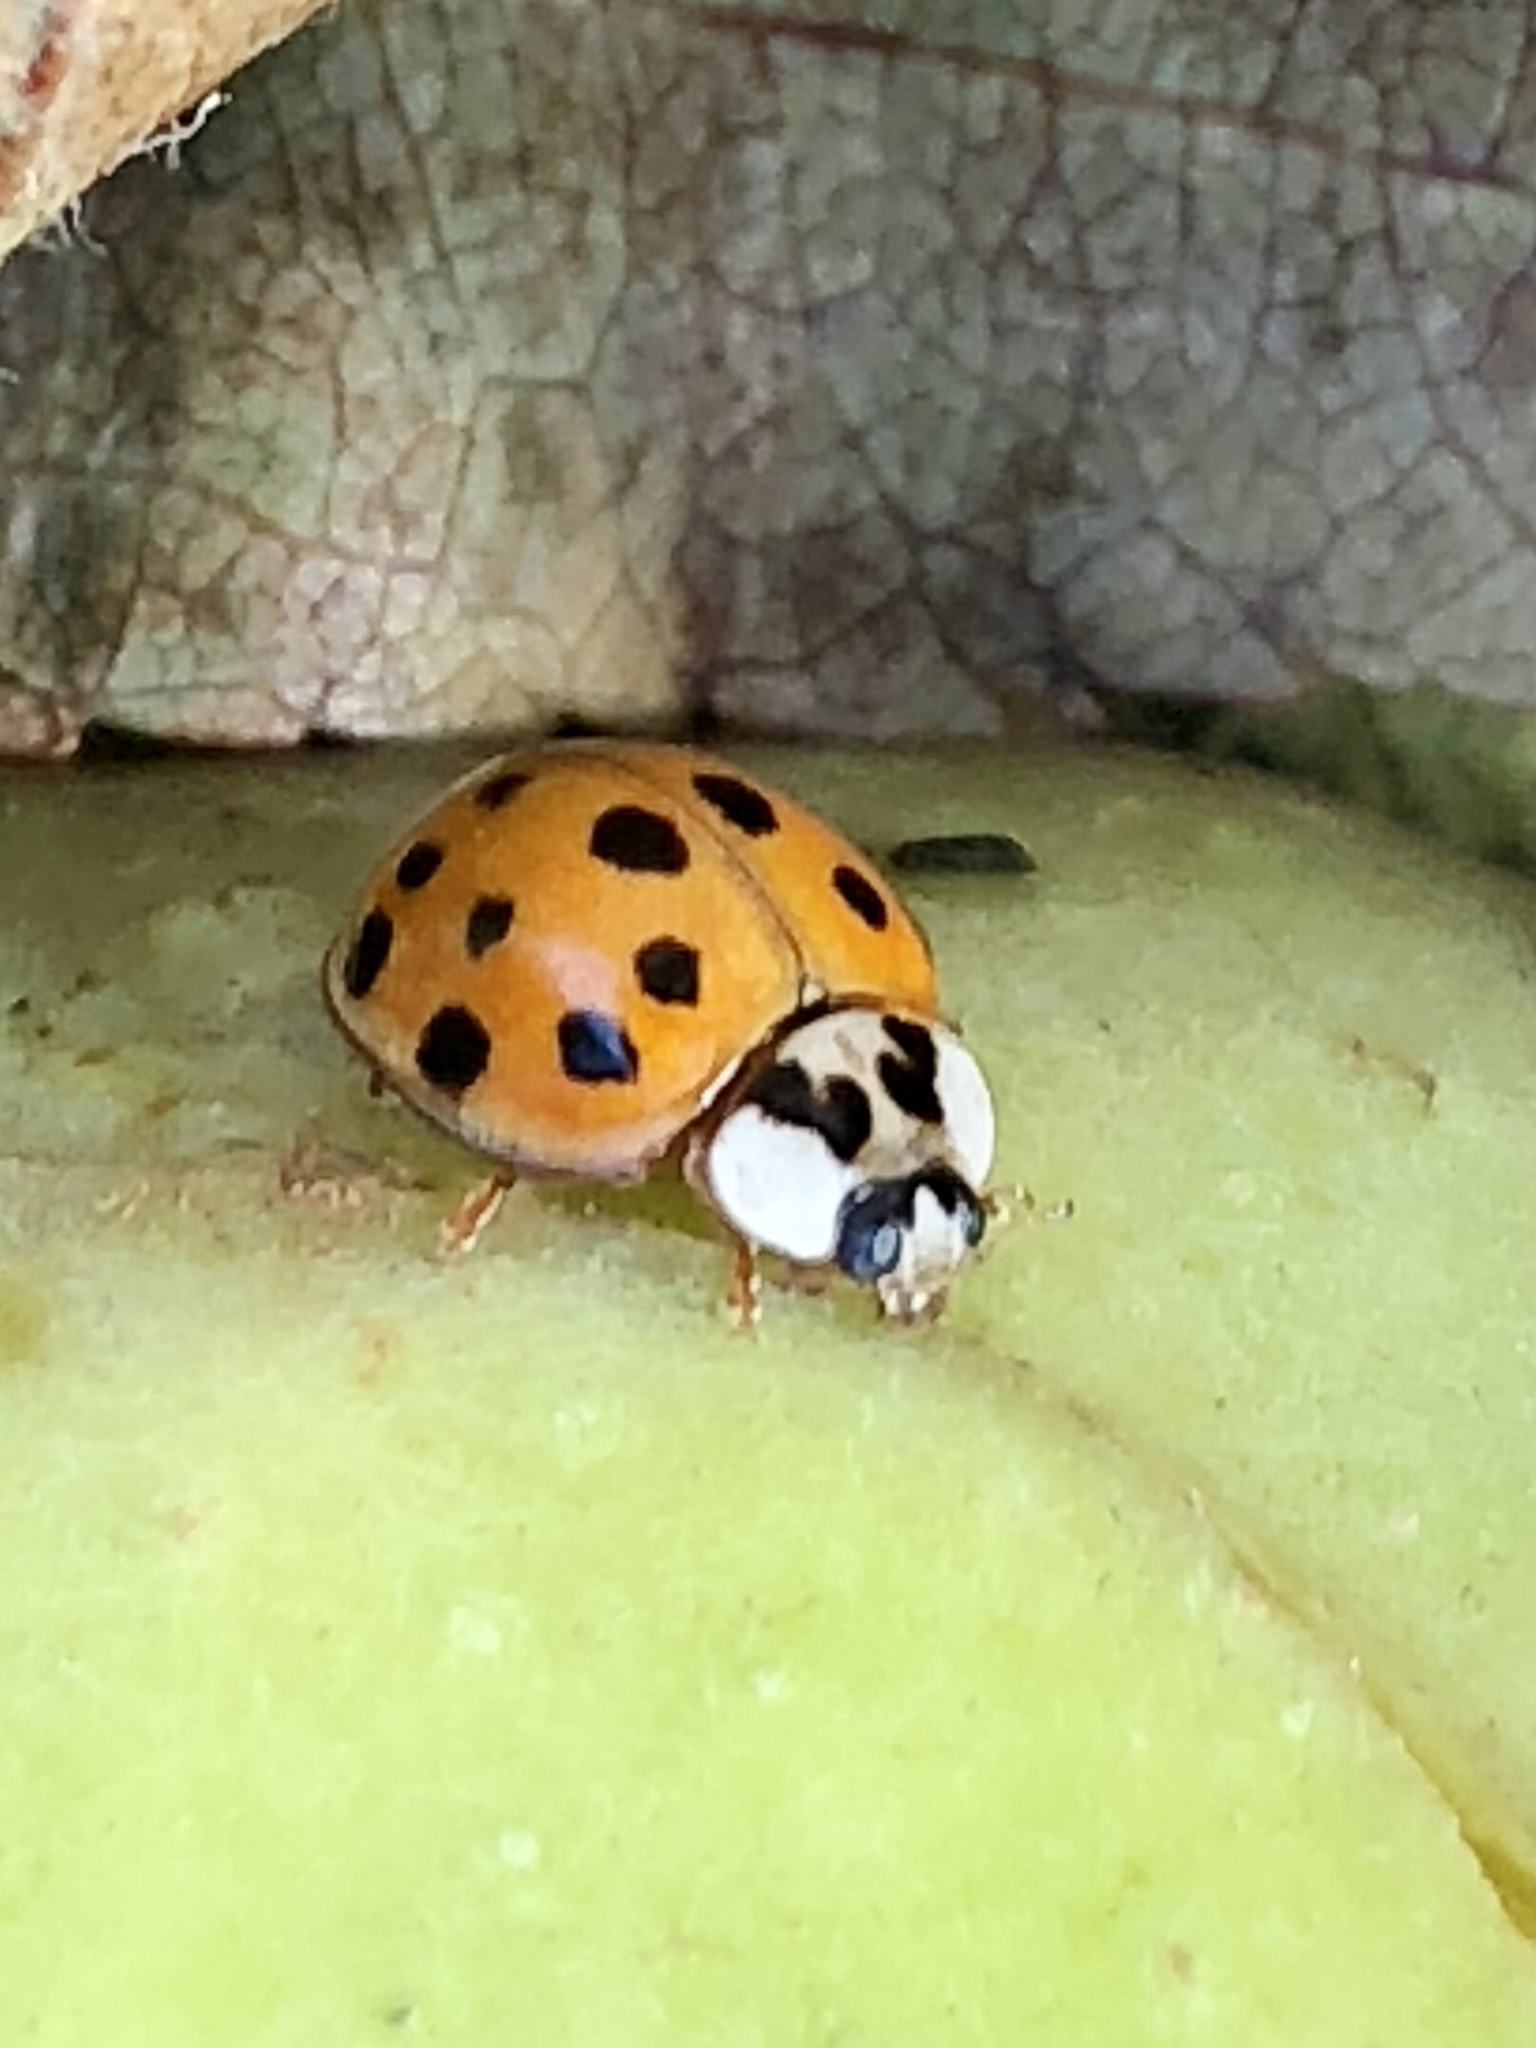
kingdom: Animalia
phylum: Arthropoda
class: Insecta
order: Coleoptera
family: Coccinellidae
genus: Harmonia
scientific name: Harmonia axyridis
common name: Harlequin ladybird
